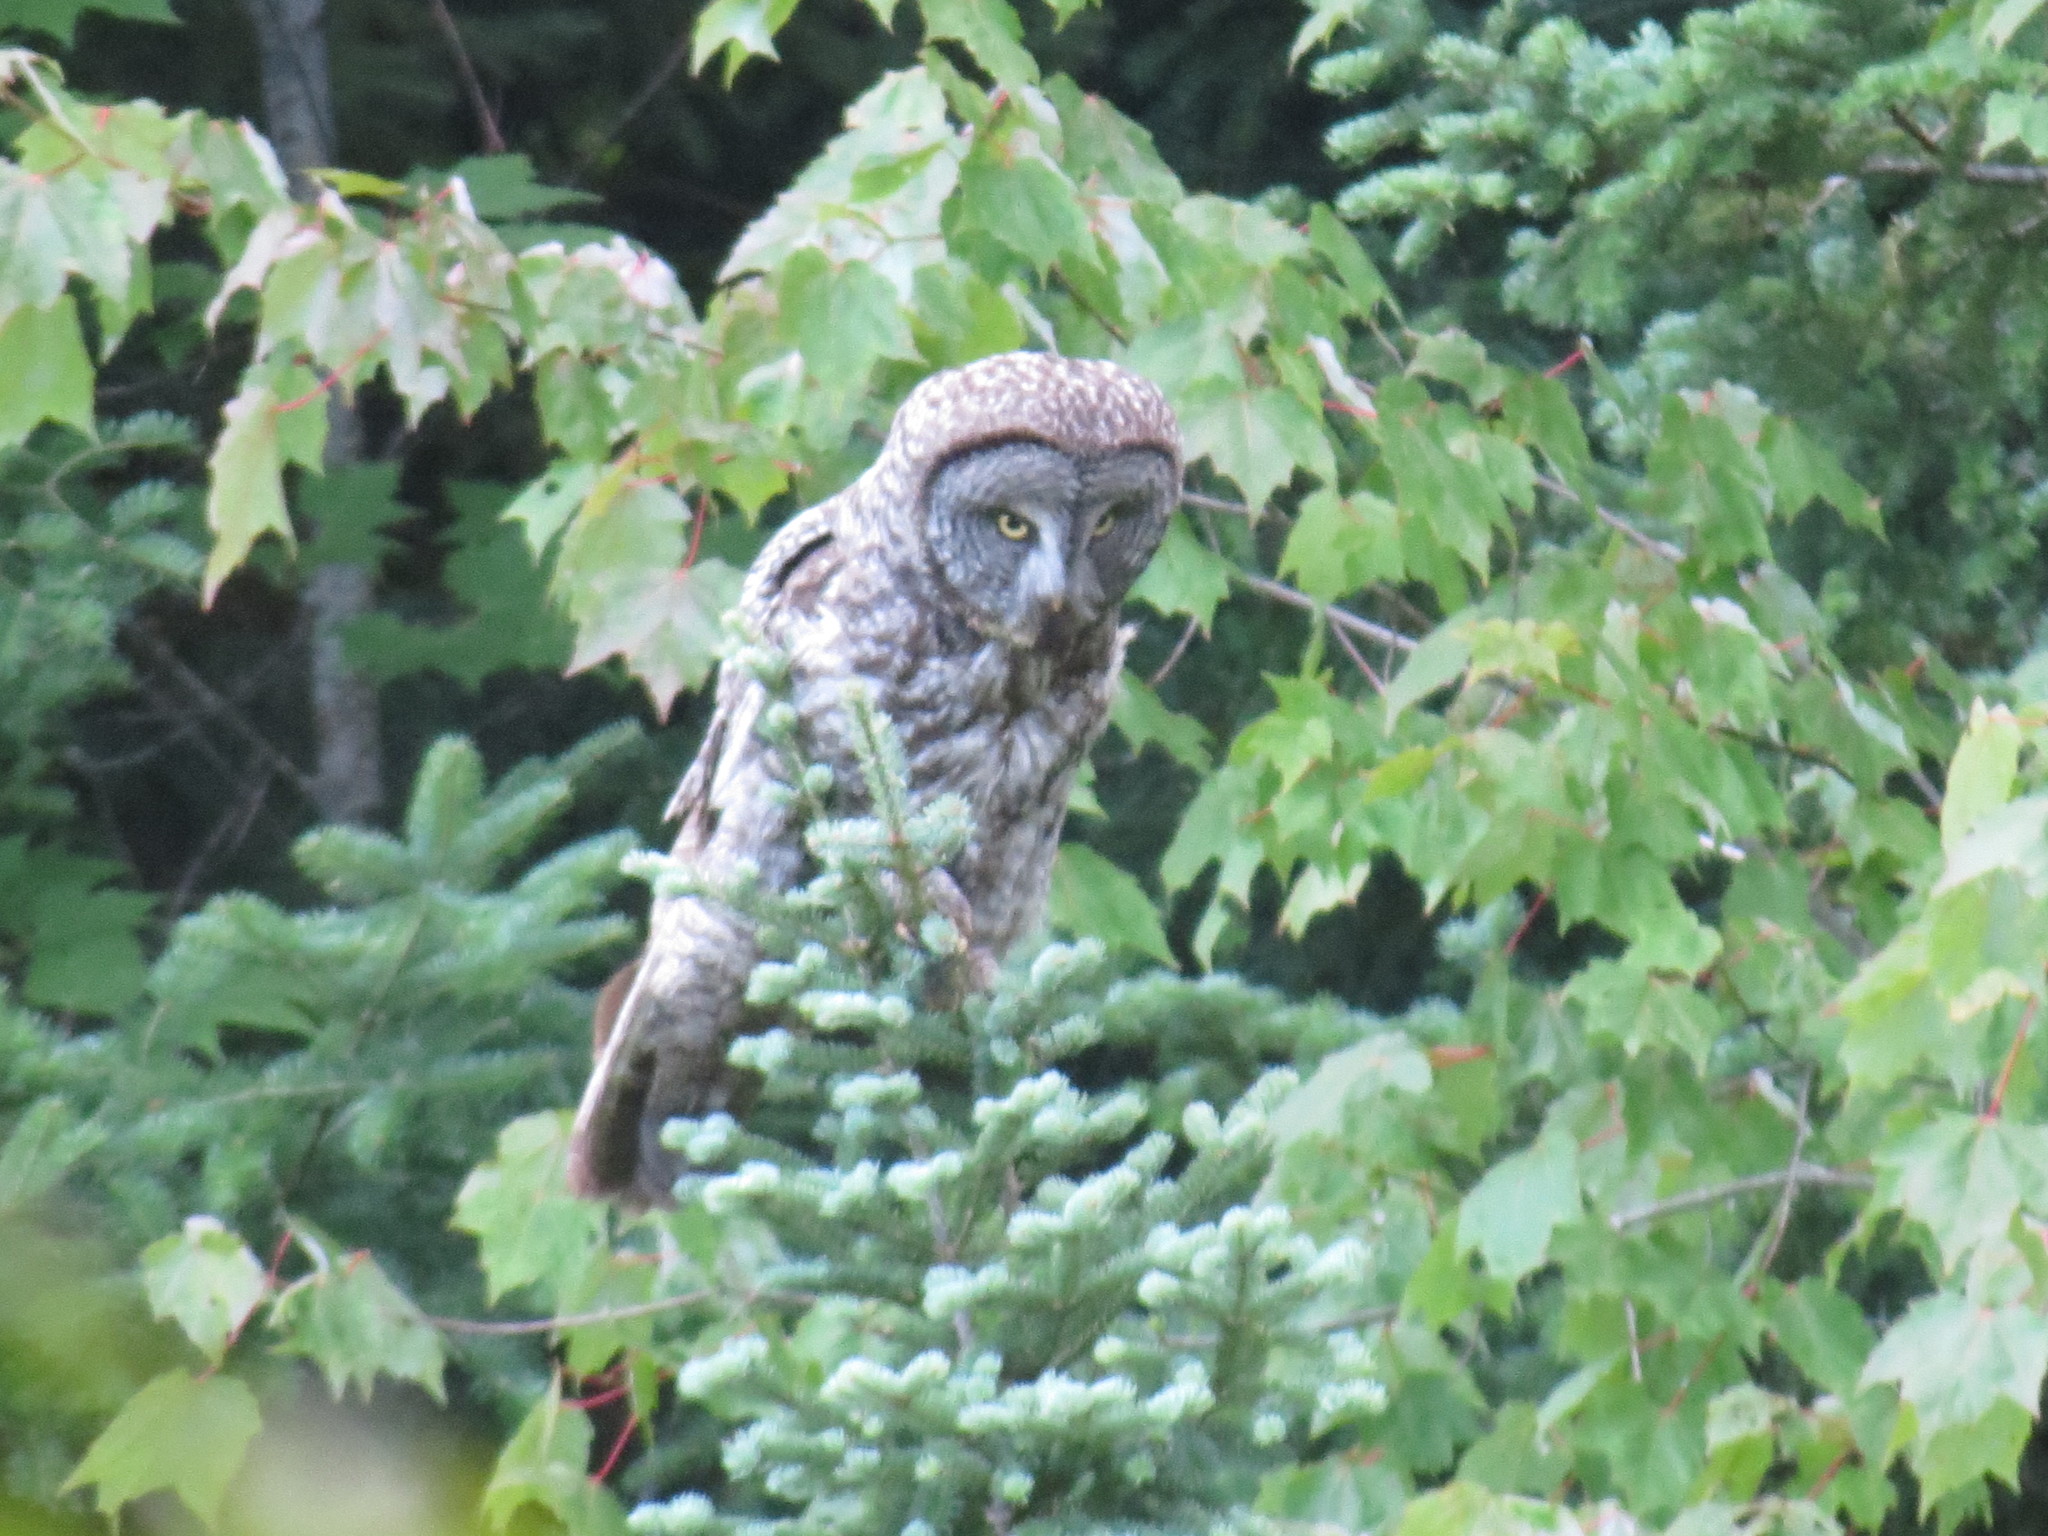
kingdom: Animalia
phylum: Chordata
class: Aves
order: Strigiformes
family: Strigidae
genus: Strix
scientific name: Strix nebulosa
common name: Great grey owl
